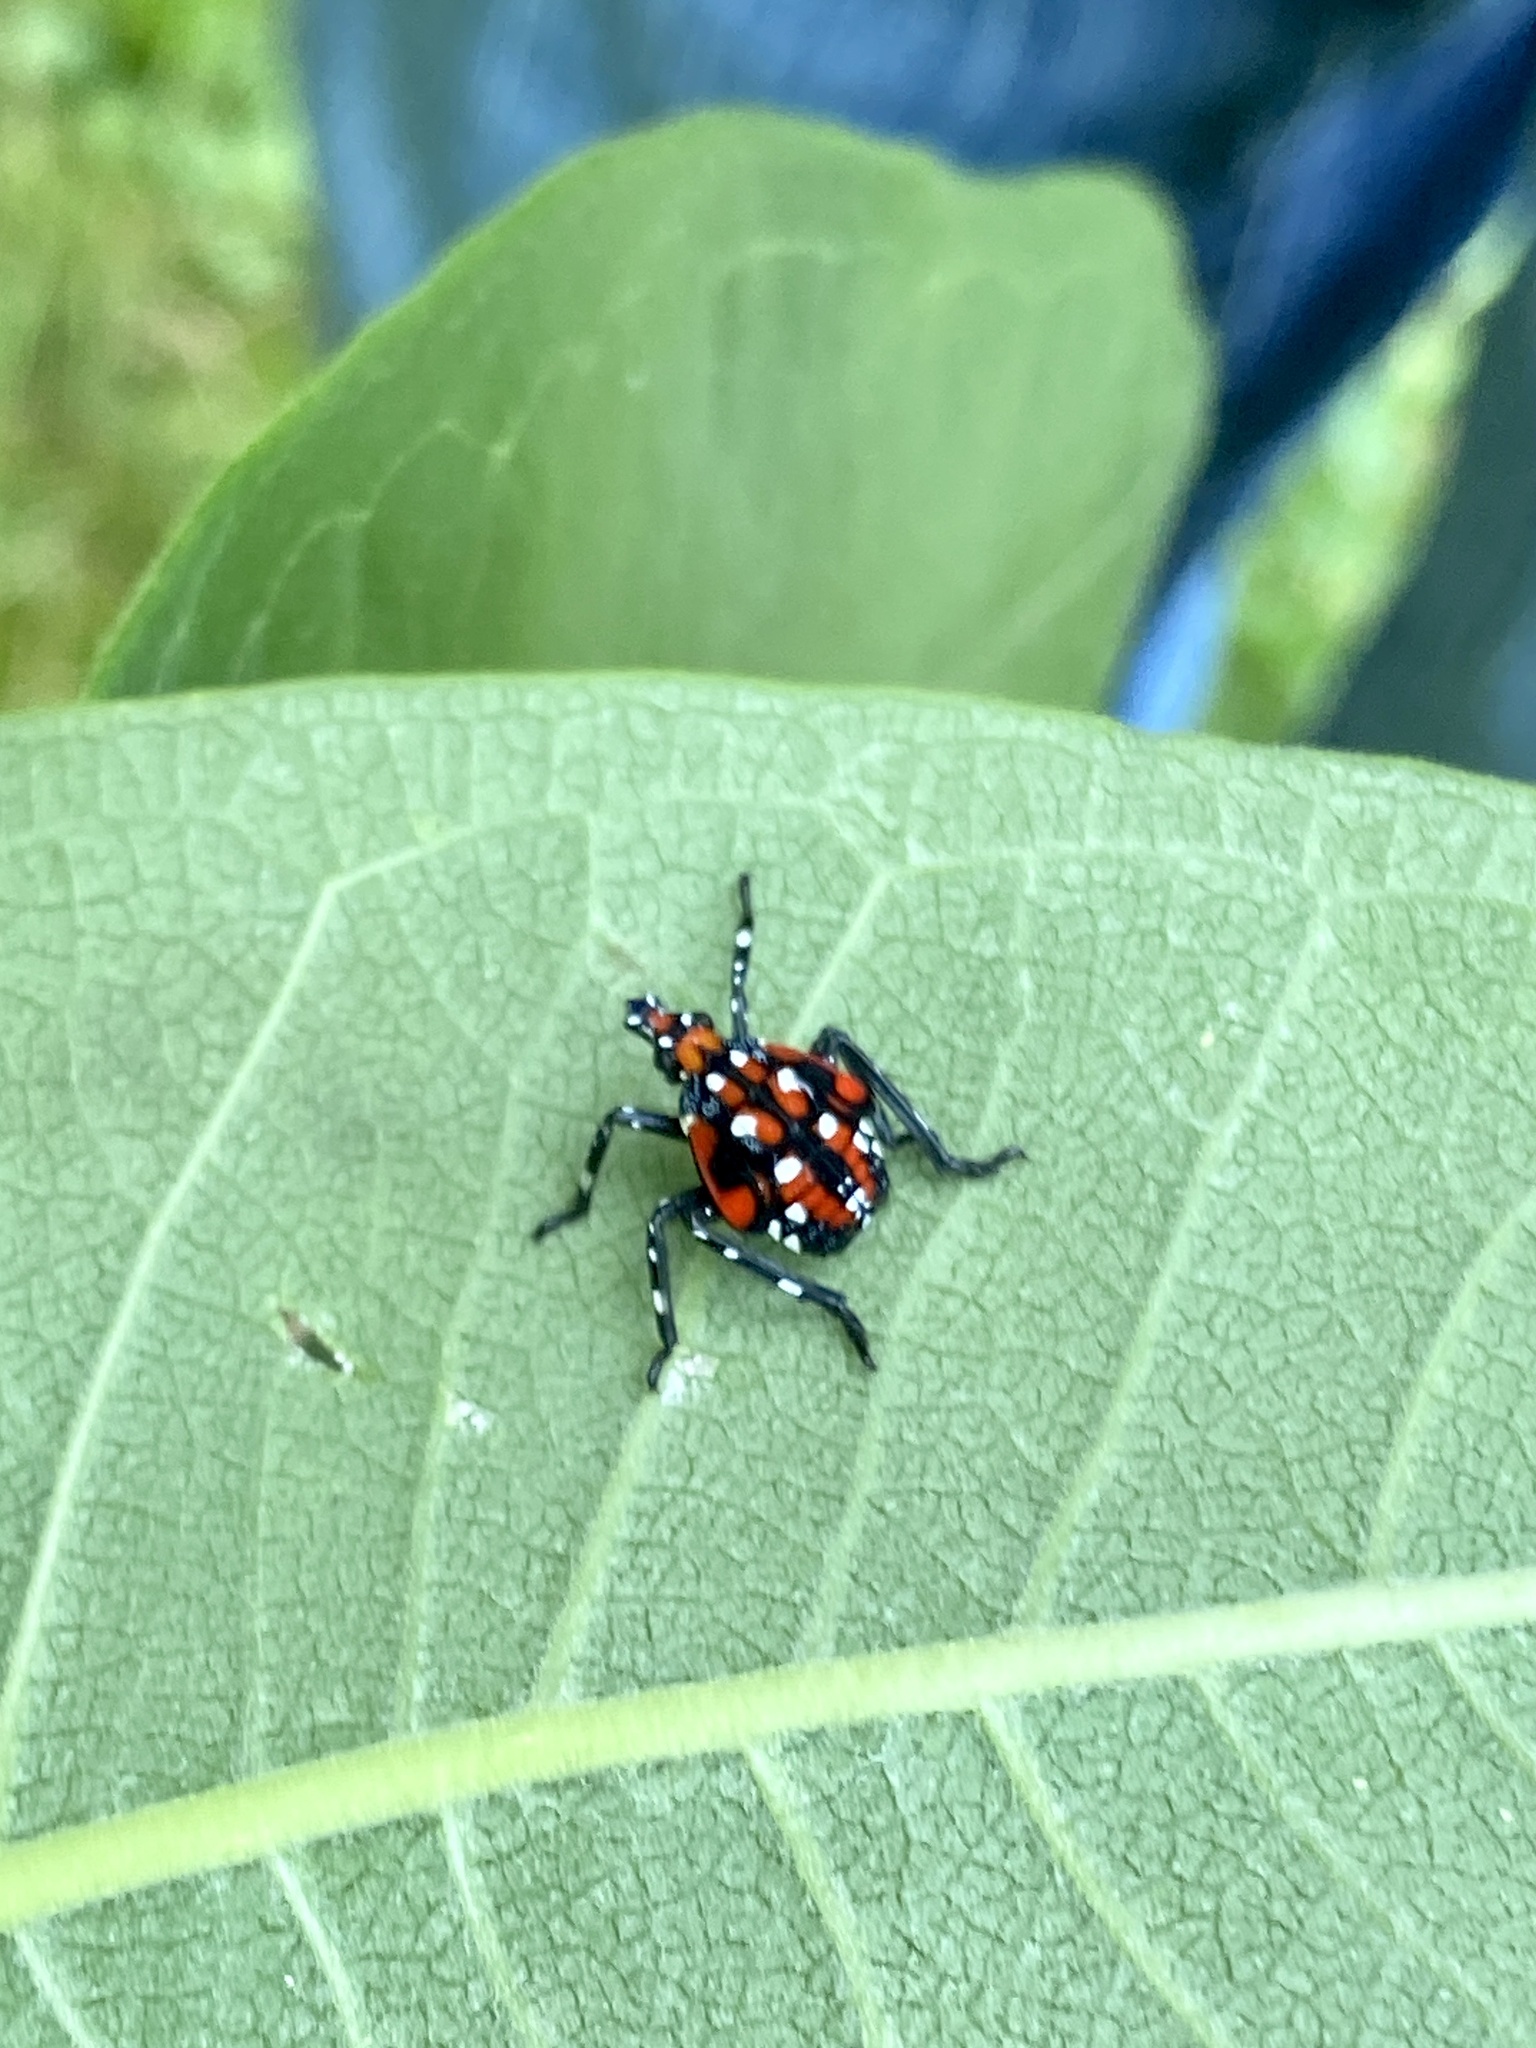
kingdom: Animalia
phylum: Arthropoda
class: Insecta
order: Hemiptera
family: Fulgoridae
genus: Lycorma
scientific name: Lycorma delicatula
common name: Spotted lanternfly
